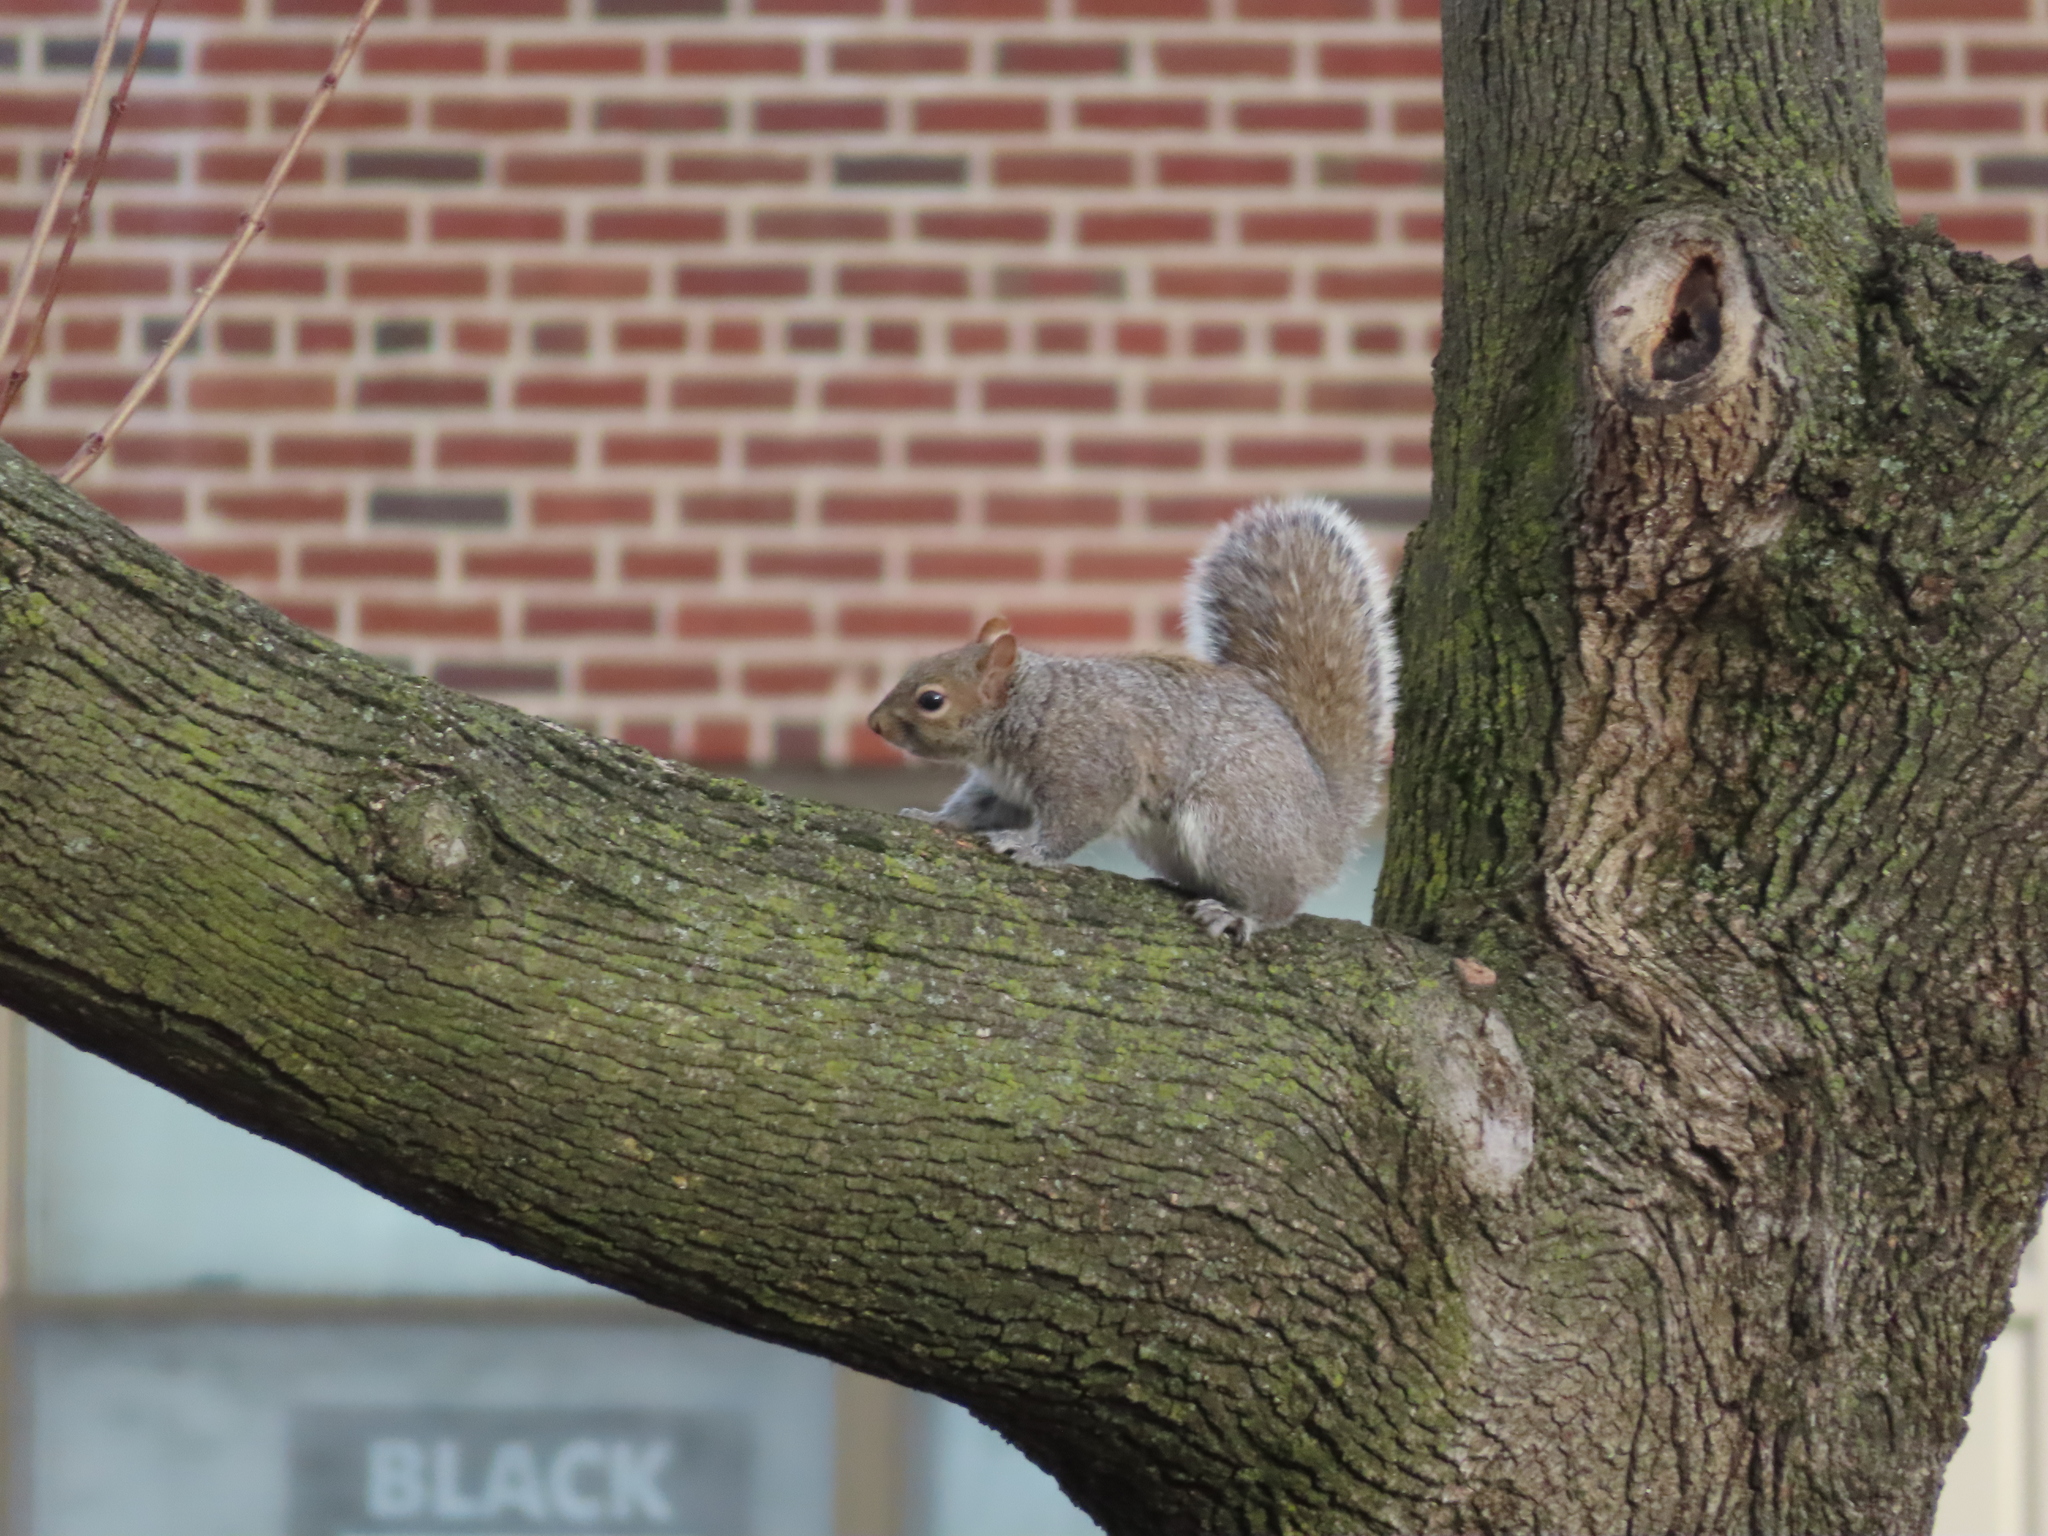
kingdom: Animalia
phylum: Chordata
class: Mammalia
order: Rodentia
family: Sciuridae
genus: Sciurus
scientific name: Sciurus carolinensis
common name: Eastern gray squirrel
